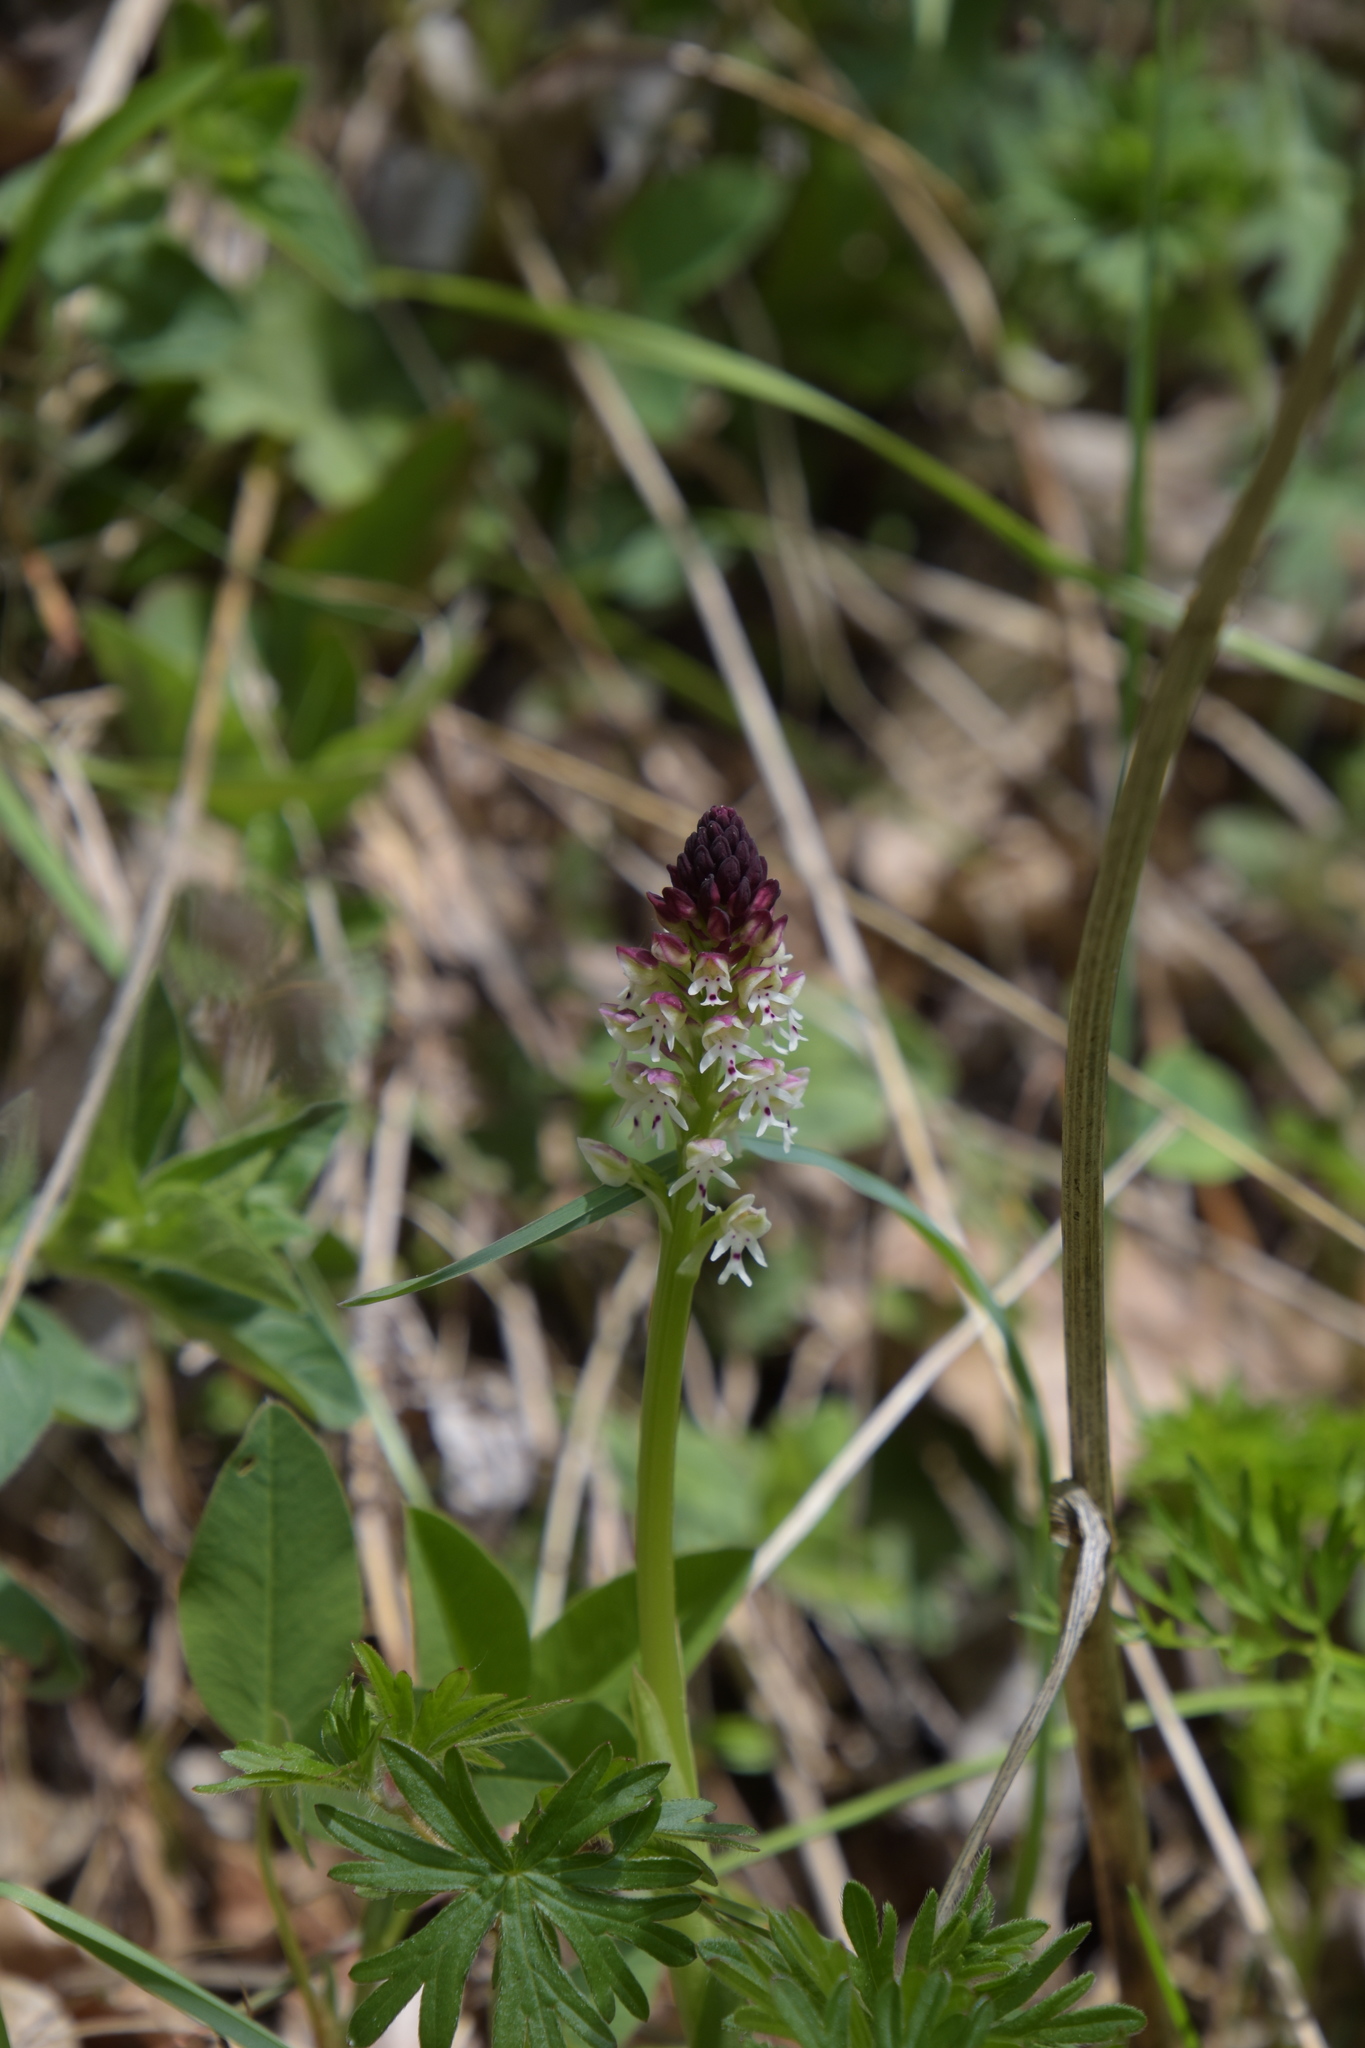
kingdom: Plantae
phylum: Tracheophyta
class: Liliopsida
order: Asparagales
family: Orchidaceae
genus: Neotinea
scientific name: Neotinea ustulata
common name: Burnt orchid
